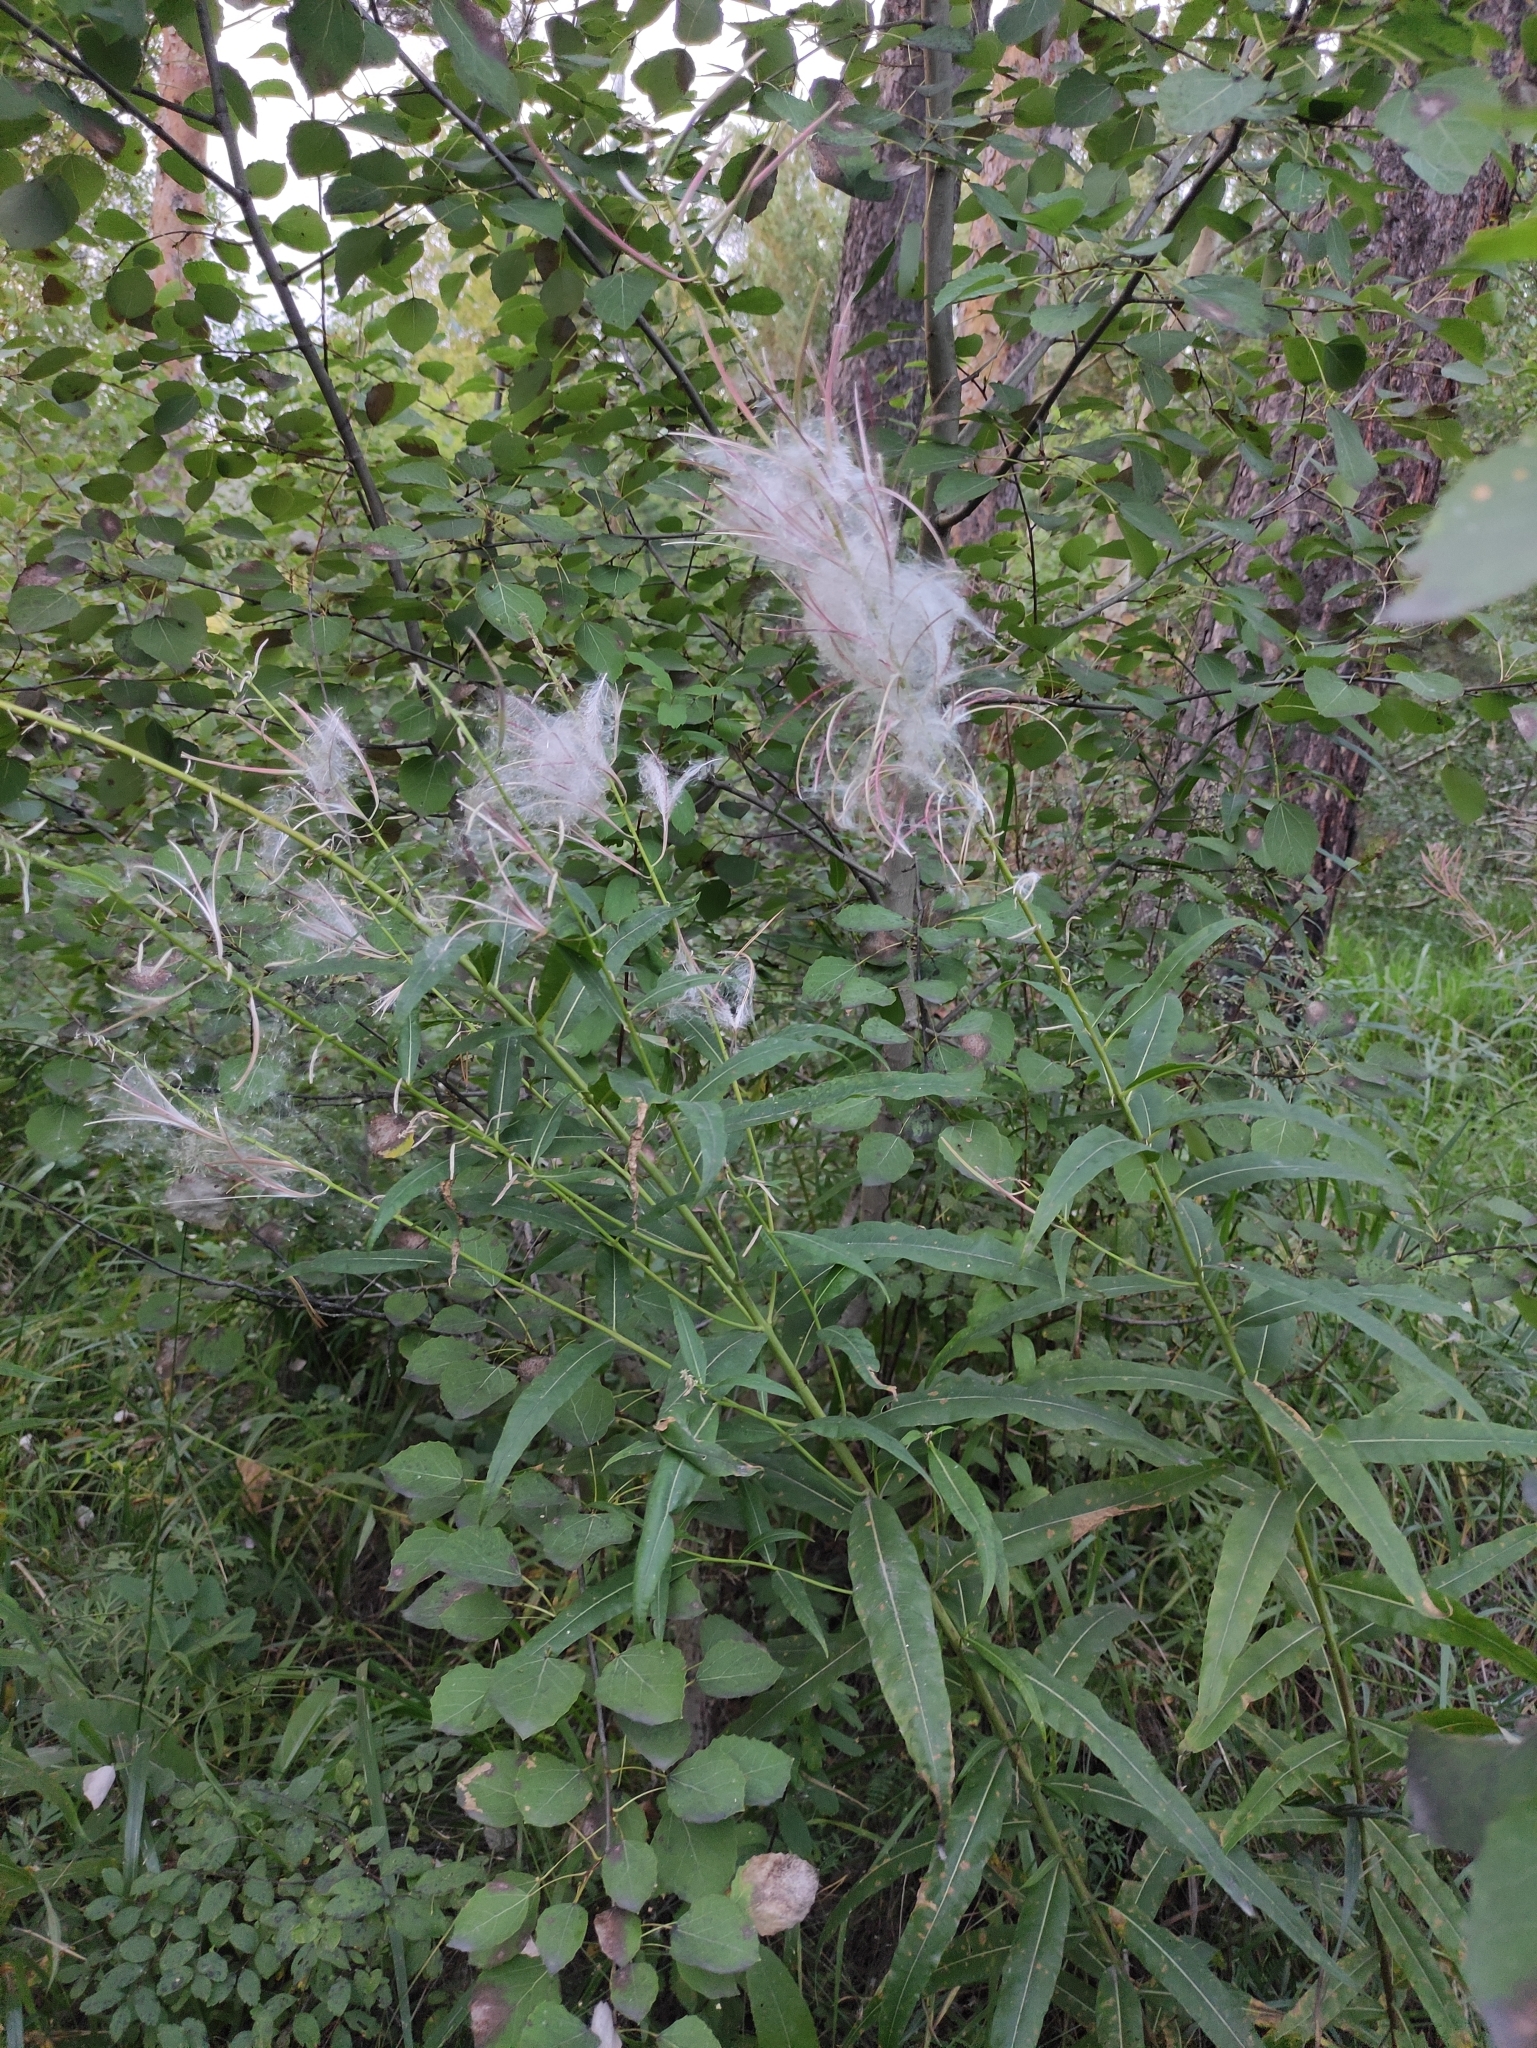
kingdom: Plantae
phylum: Tracheophyta
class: Magnoliopsida
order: Myrtales
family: Onagraceae
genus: Chamaenerion
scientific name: Chamaenerion angustifolium
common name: Fireweed
